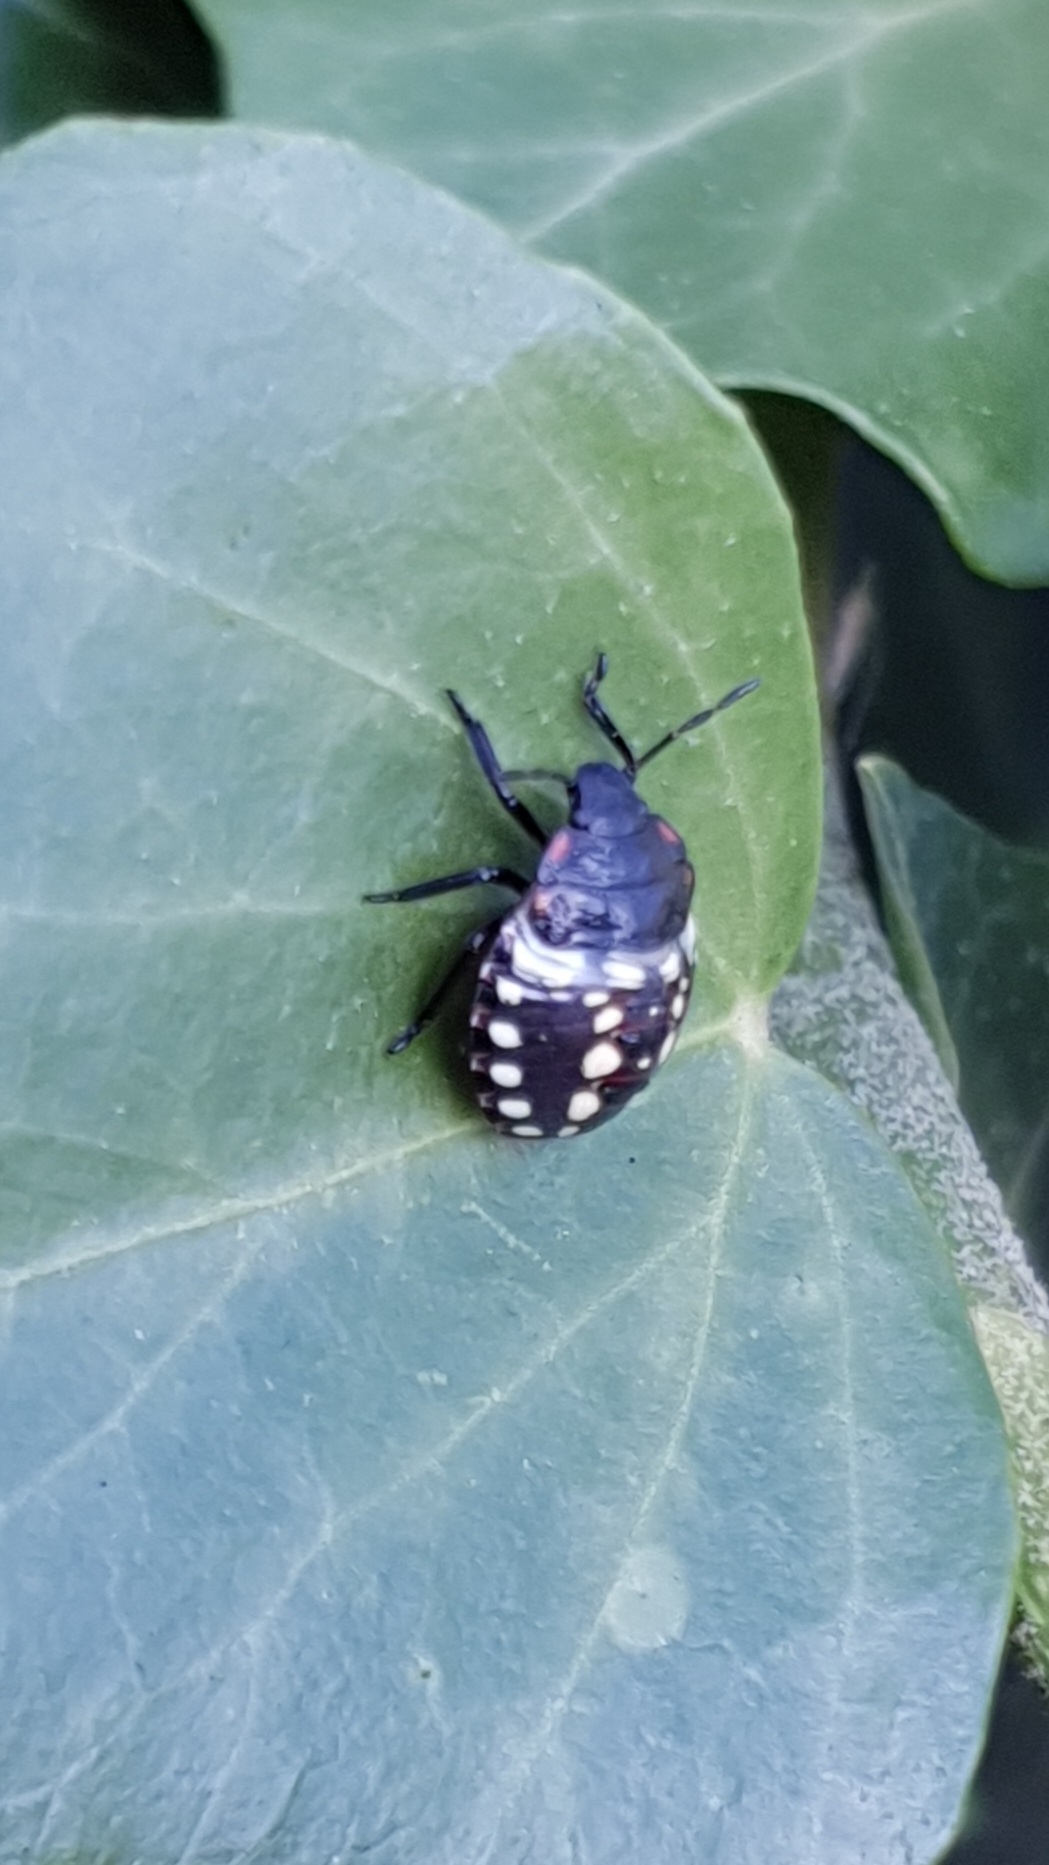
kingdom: Animalia
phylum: Arthropoda
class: Insecta
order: Hemiptera
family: Pentatomidae
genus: Nezara
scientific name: Nezara viridula
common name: Southern green stink bug
